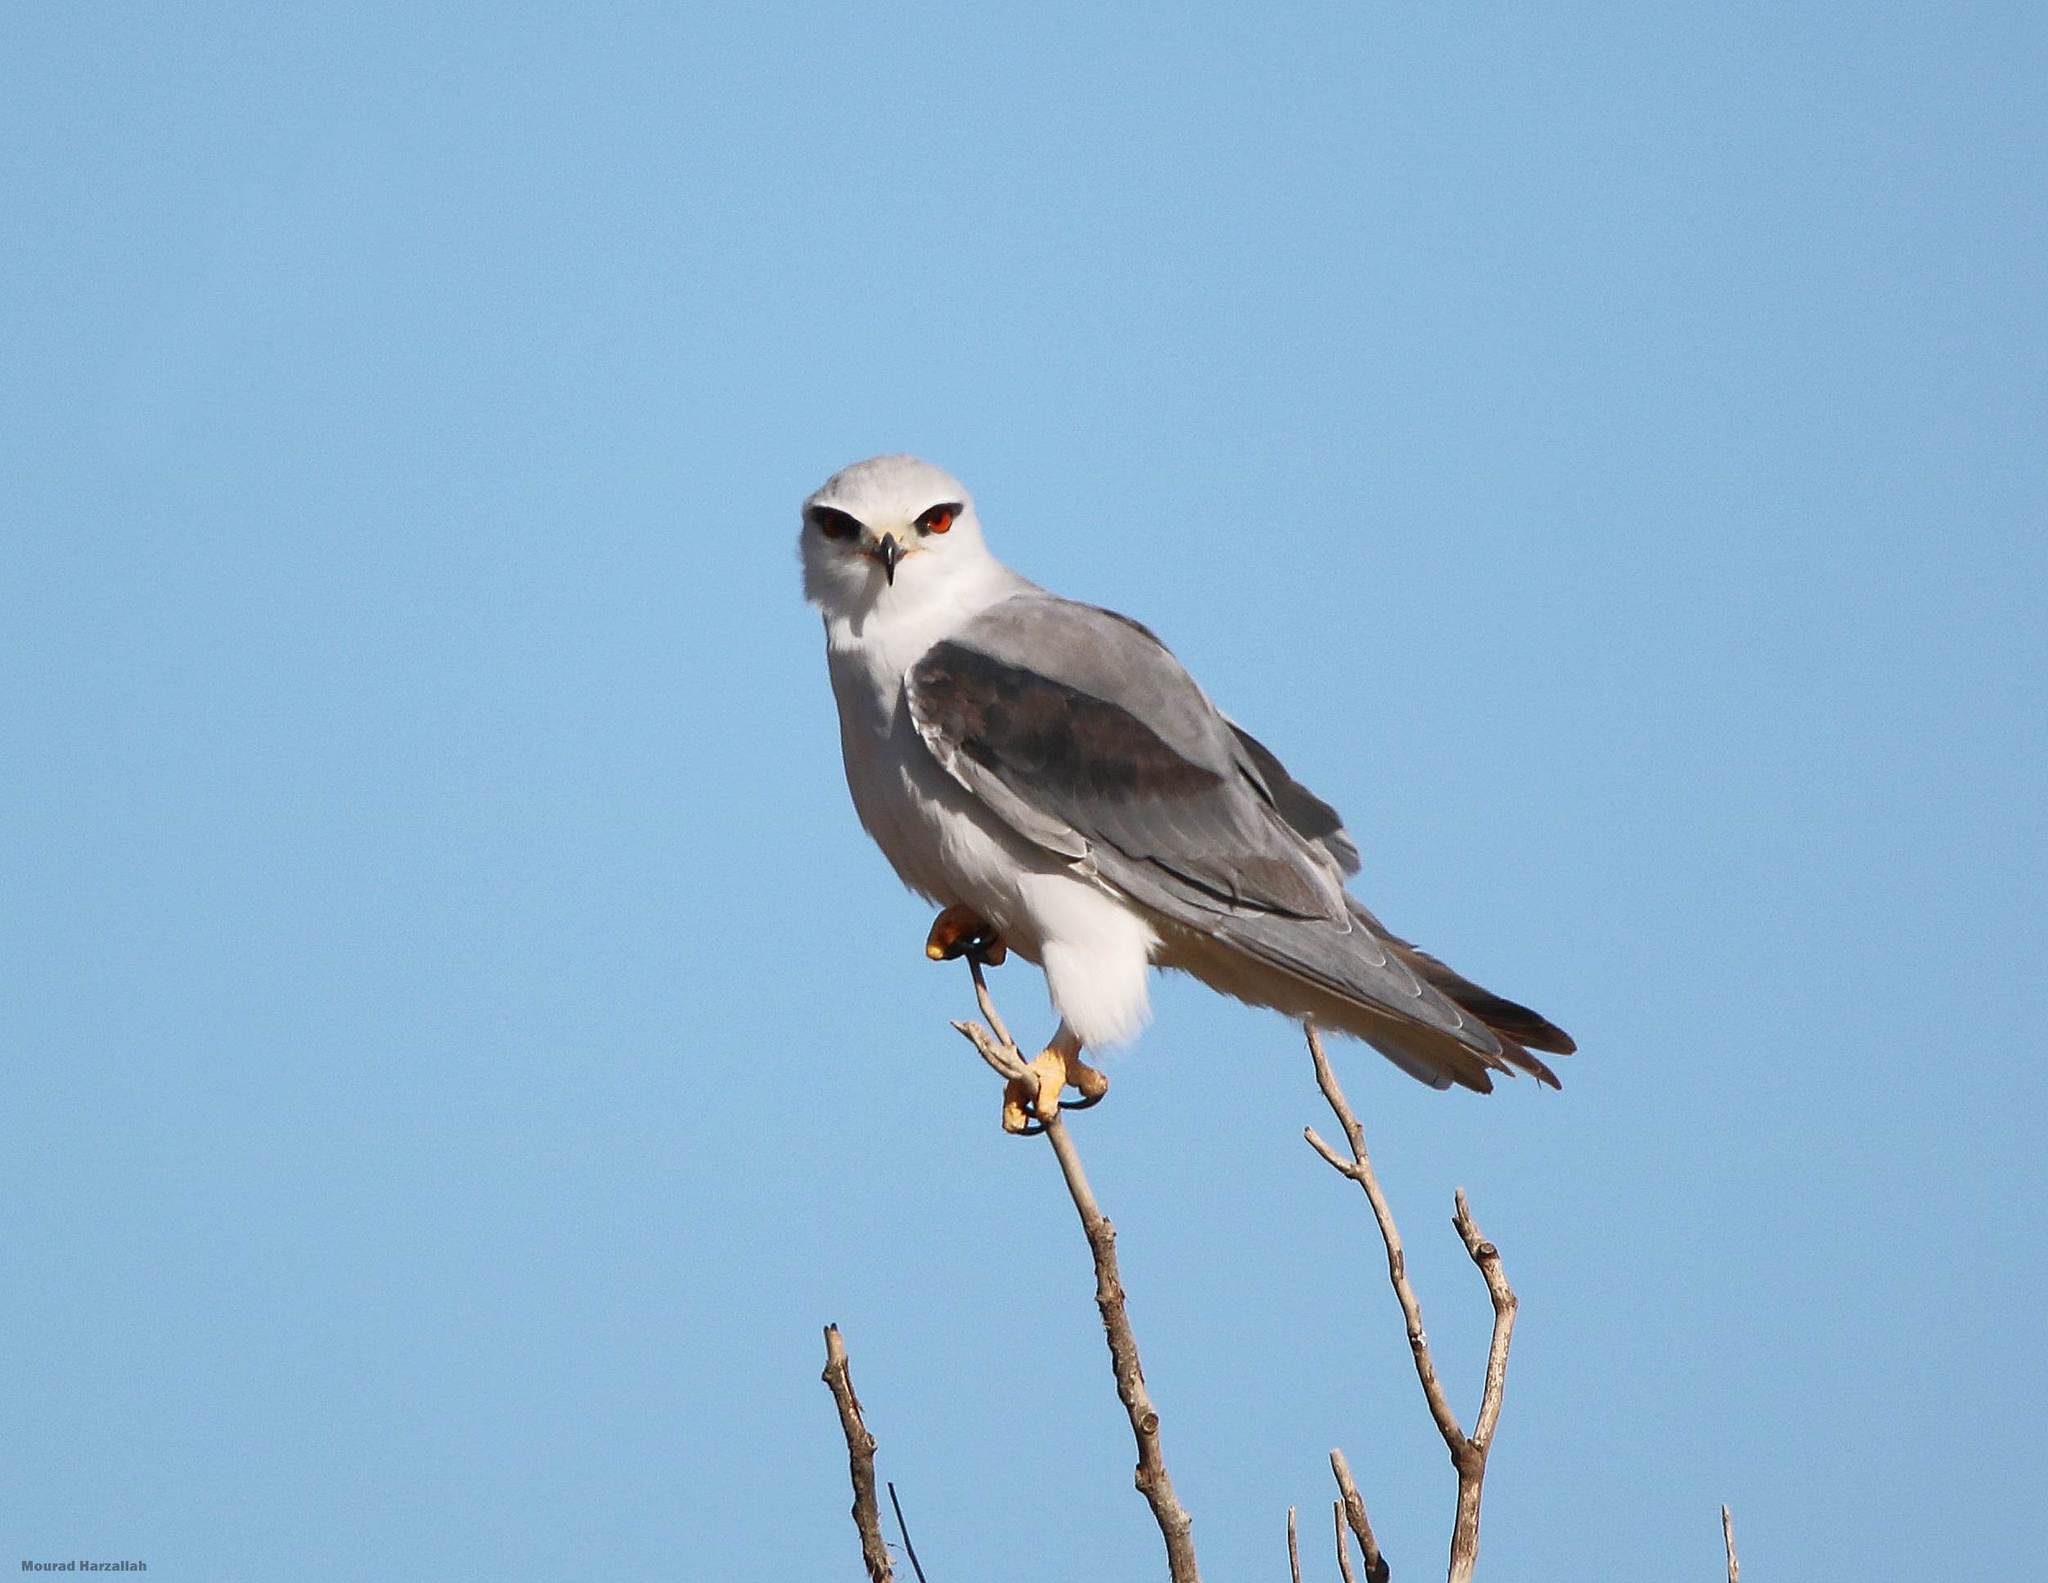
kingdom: Animalia
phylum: Chordata
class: Aves
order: Accipitriformes
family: Accipitridae
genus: Elanus
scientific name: Elanus caeruleus
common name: Black-winged kite
